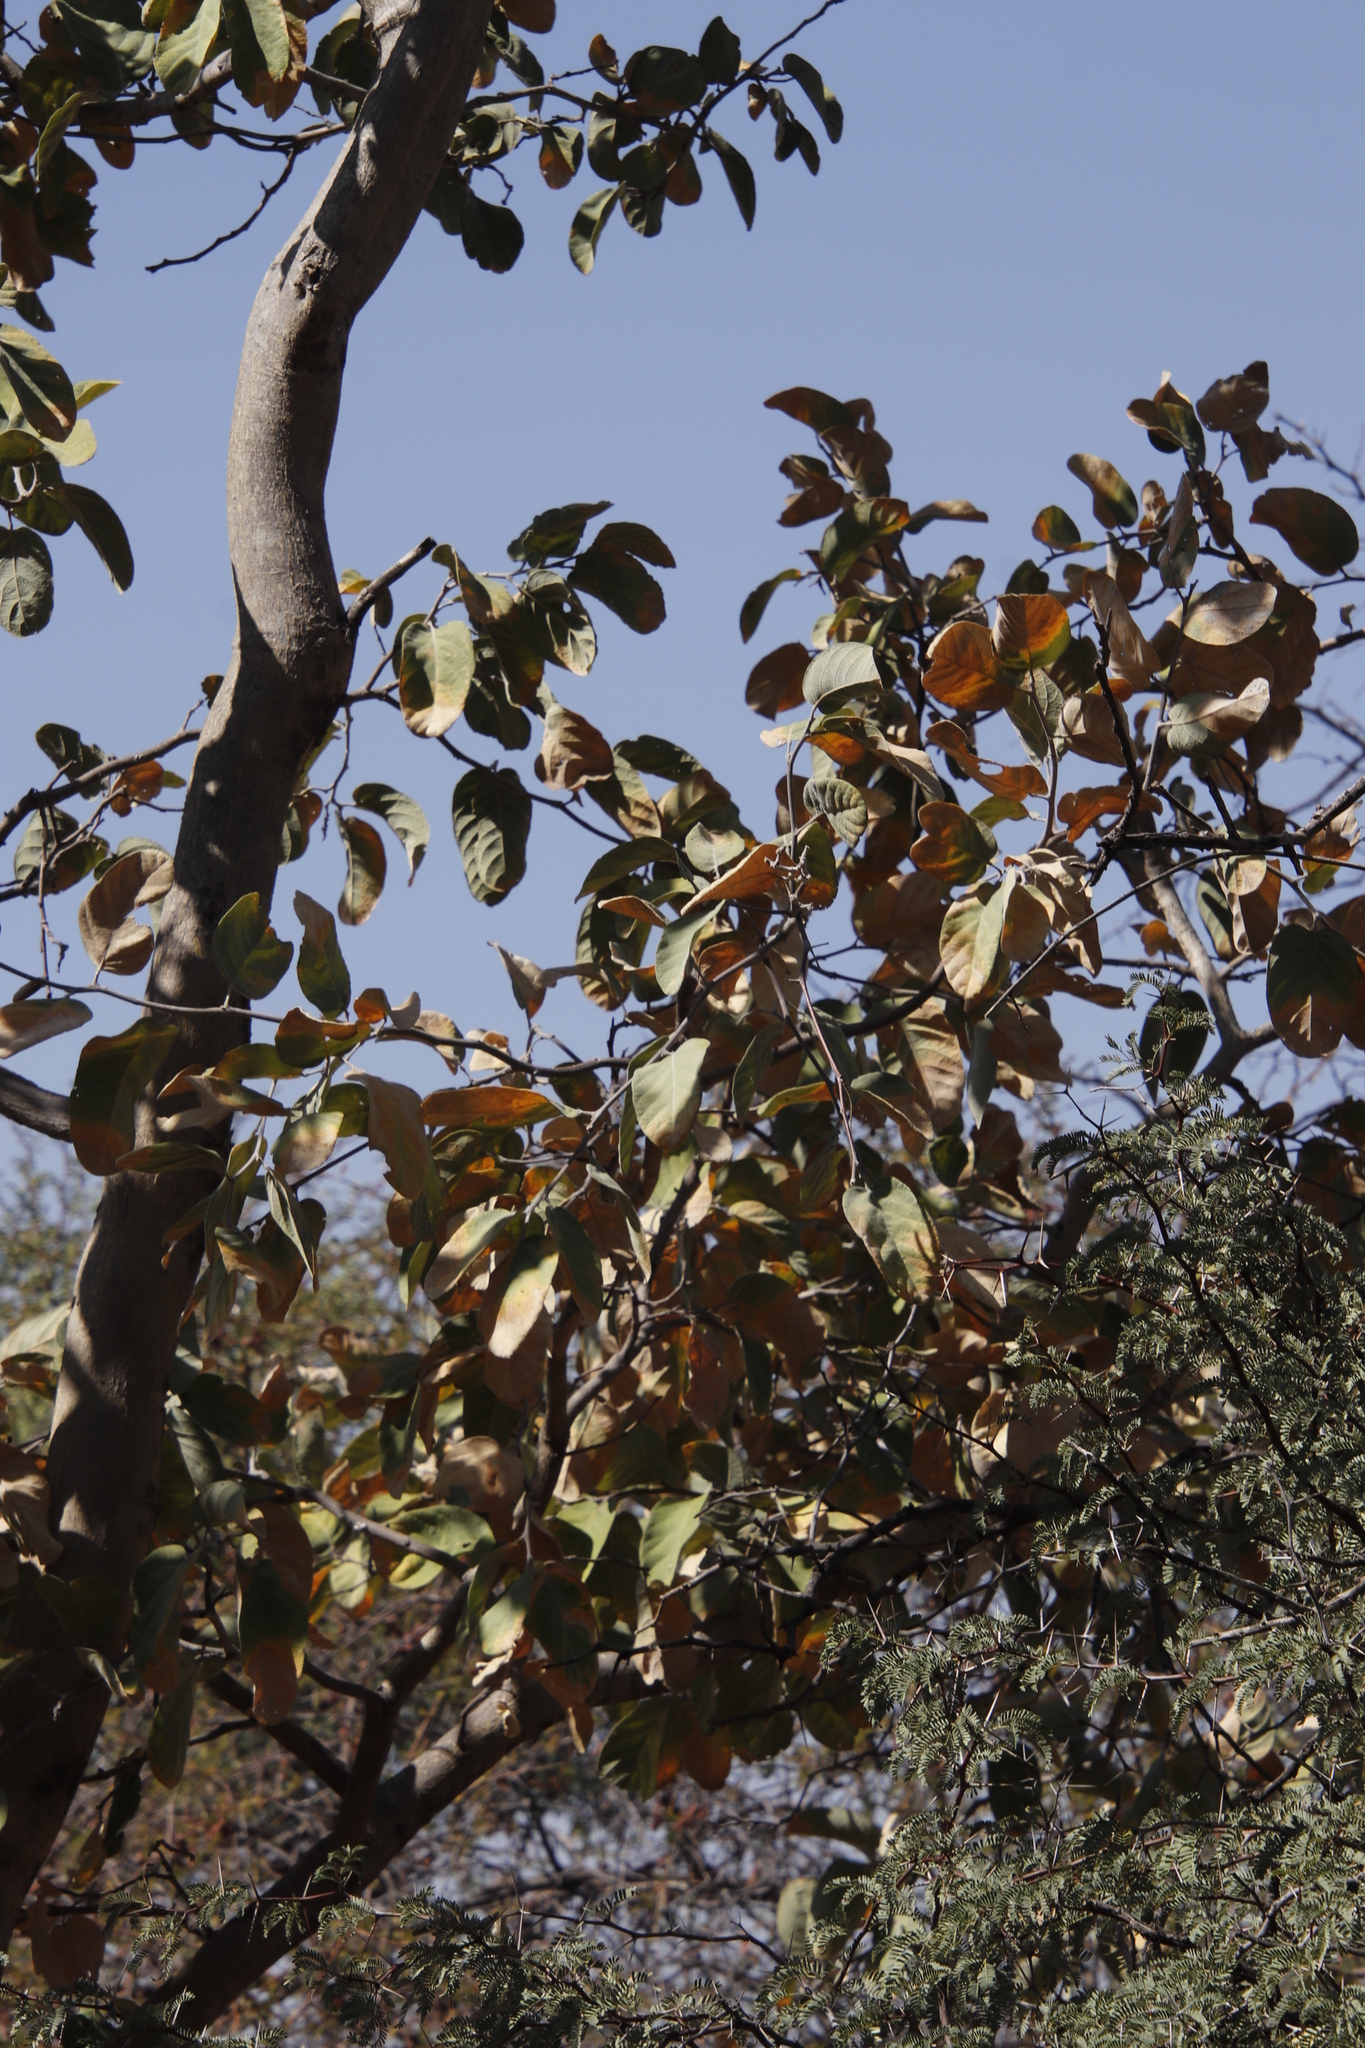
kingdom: Plantae
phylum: Tracheophyta
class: Magnoliopsida
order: Fabales
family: Fabaceae
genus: Philenoptera
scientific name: Philenoptera nelsii
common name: Kalahari apple-leaf
